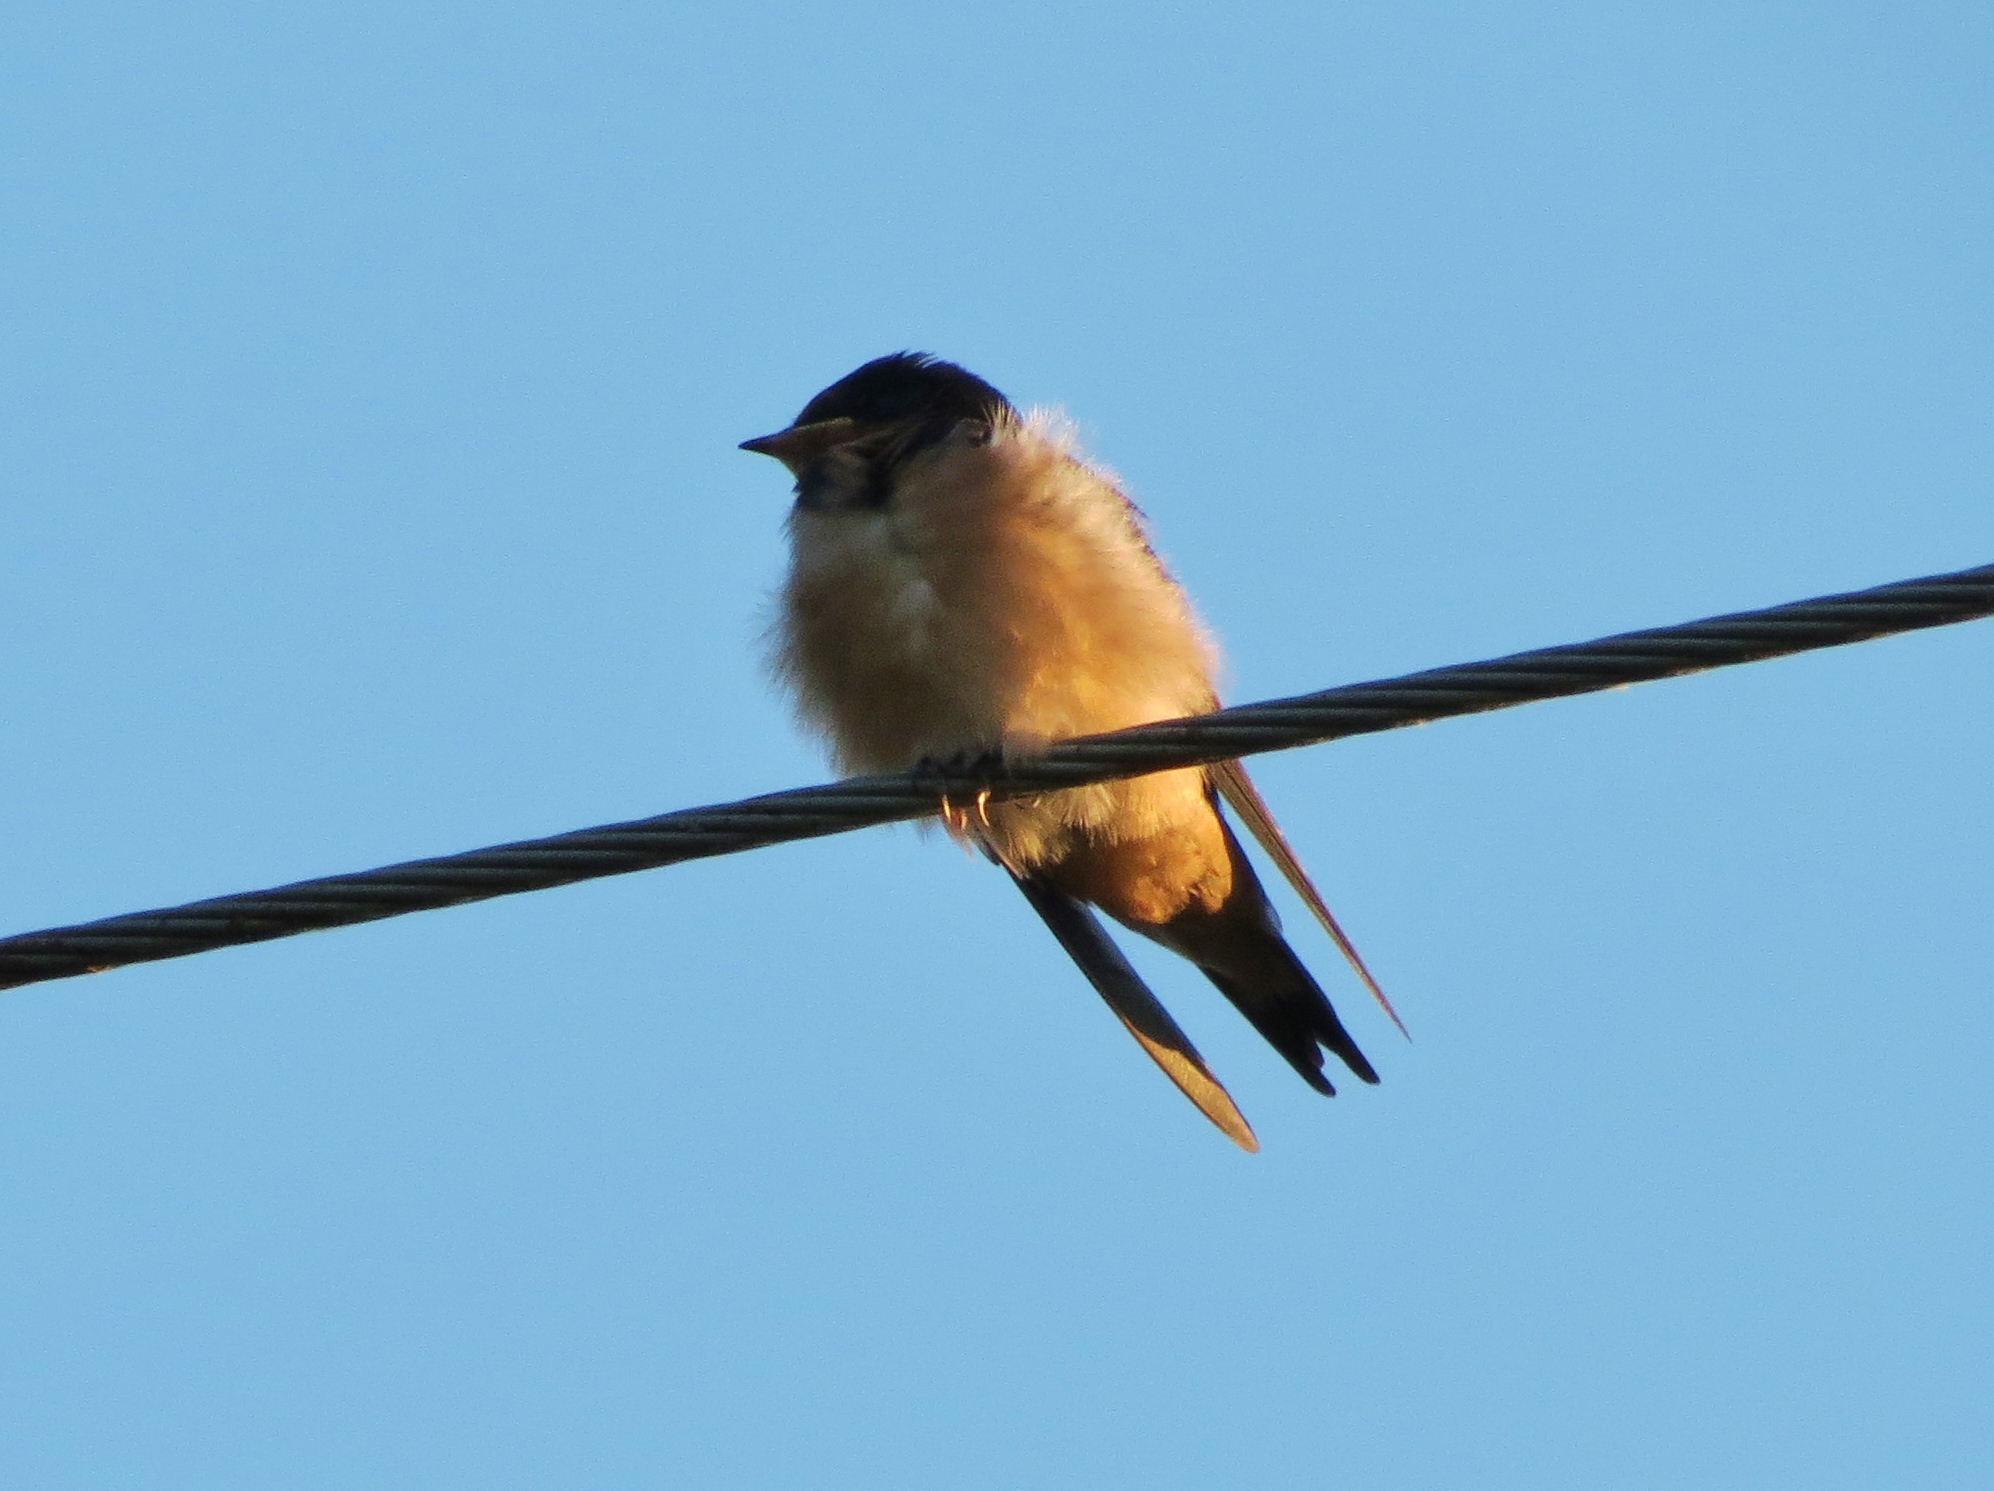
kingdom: Animalia
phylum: Chordata
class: Aves
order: Passeriformes
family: Hirundinidae
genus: Hirundo
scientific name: Hirundo rustica
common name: Barn swallow
